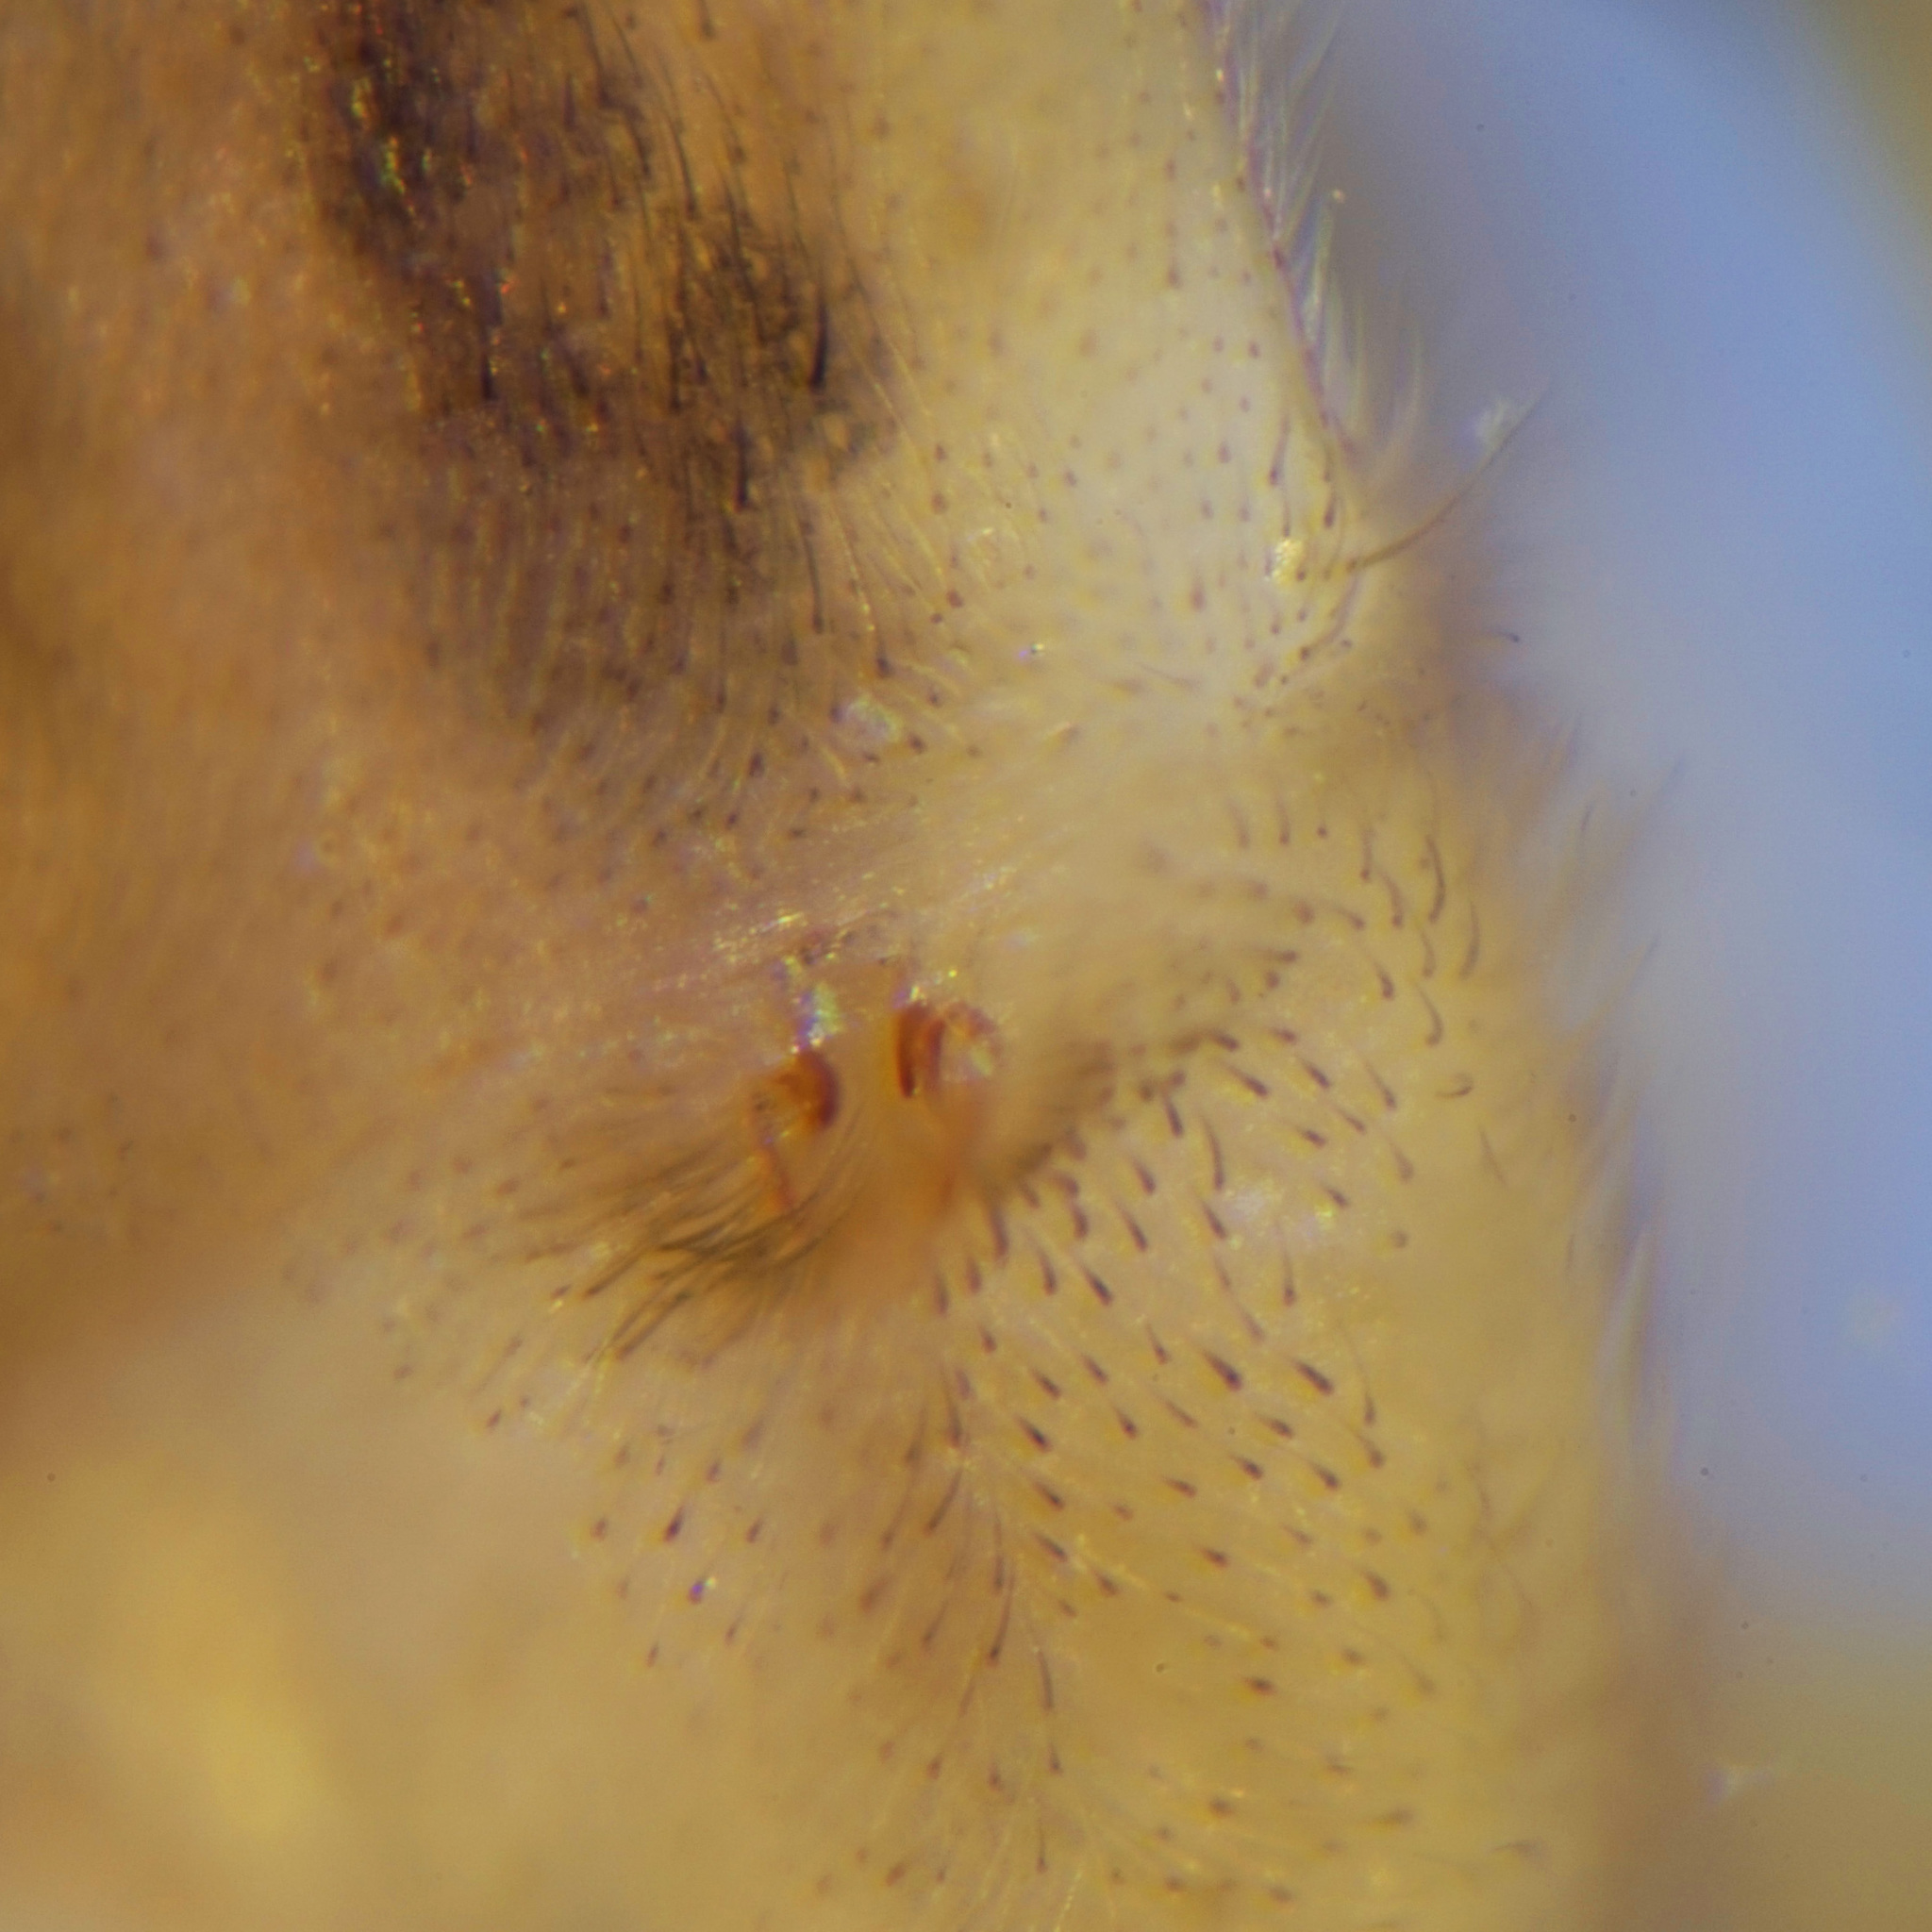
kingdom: Animalia
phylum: Arthropoda
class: Arachnida
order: Araneae
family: Anyphaenidae
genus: Anyphaena
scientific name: Anyphaena accentuata
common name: Buzzing spider
